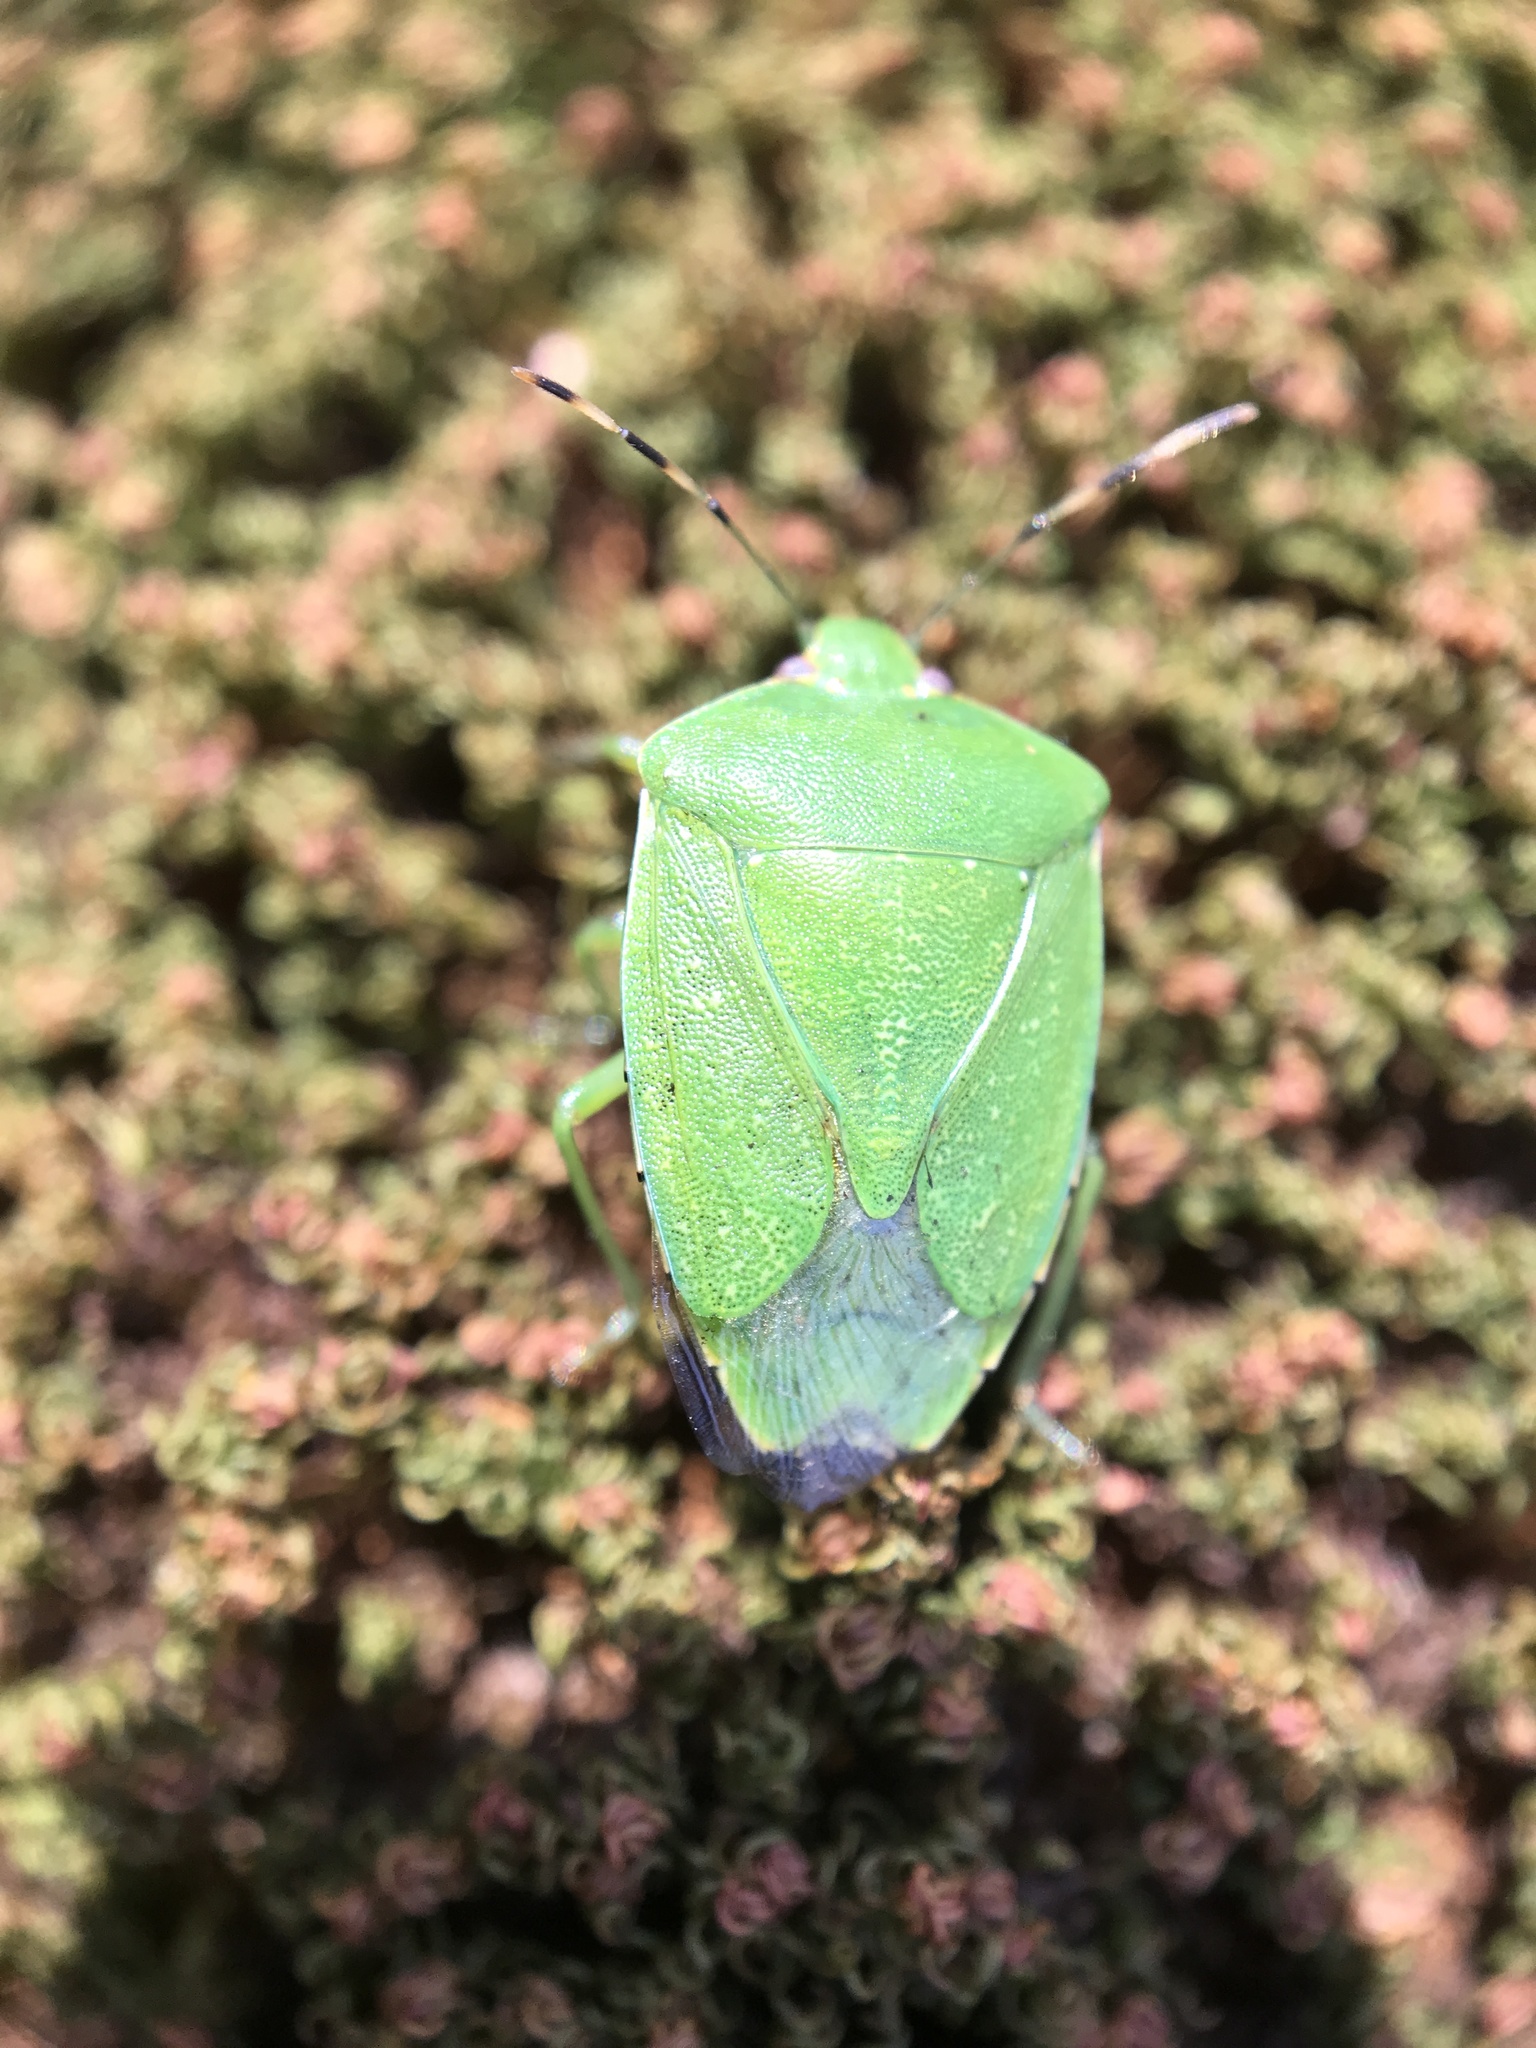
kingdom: Animalia
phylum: Arthropoda
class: Insecta
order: Hemiptera
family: Pentatomidae
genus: Chinavia
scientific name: Chinavia hilaris
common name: Green stink bug
